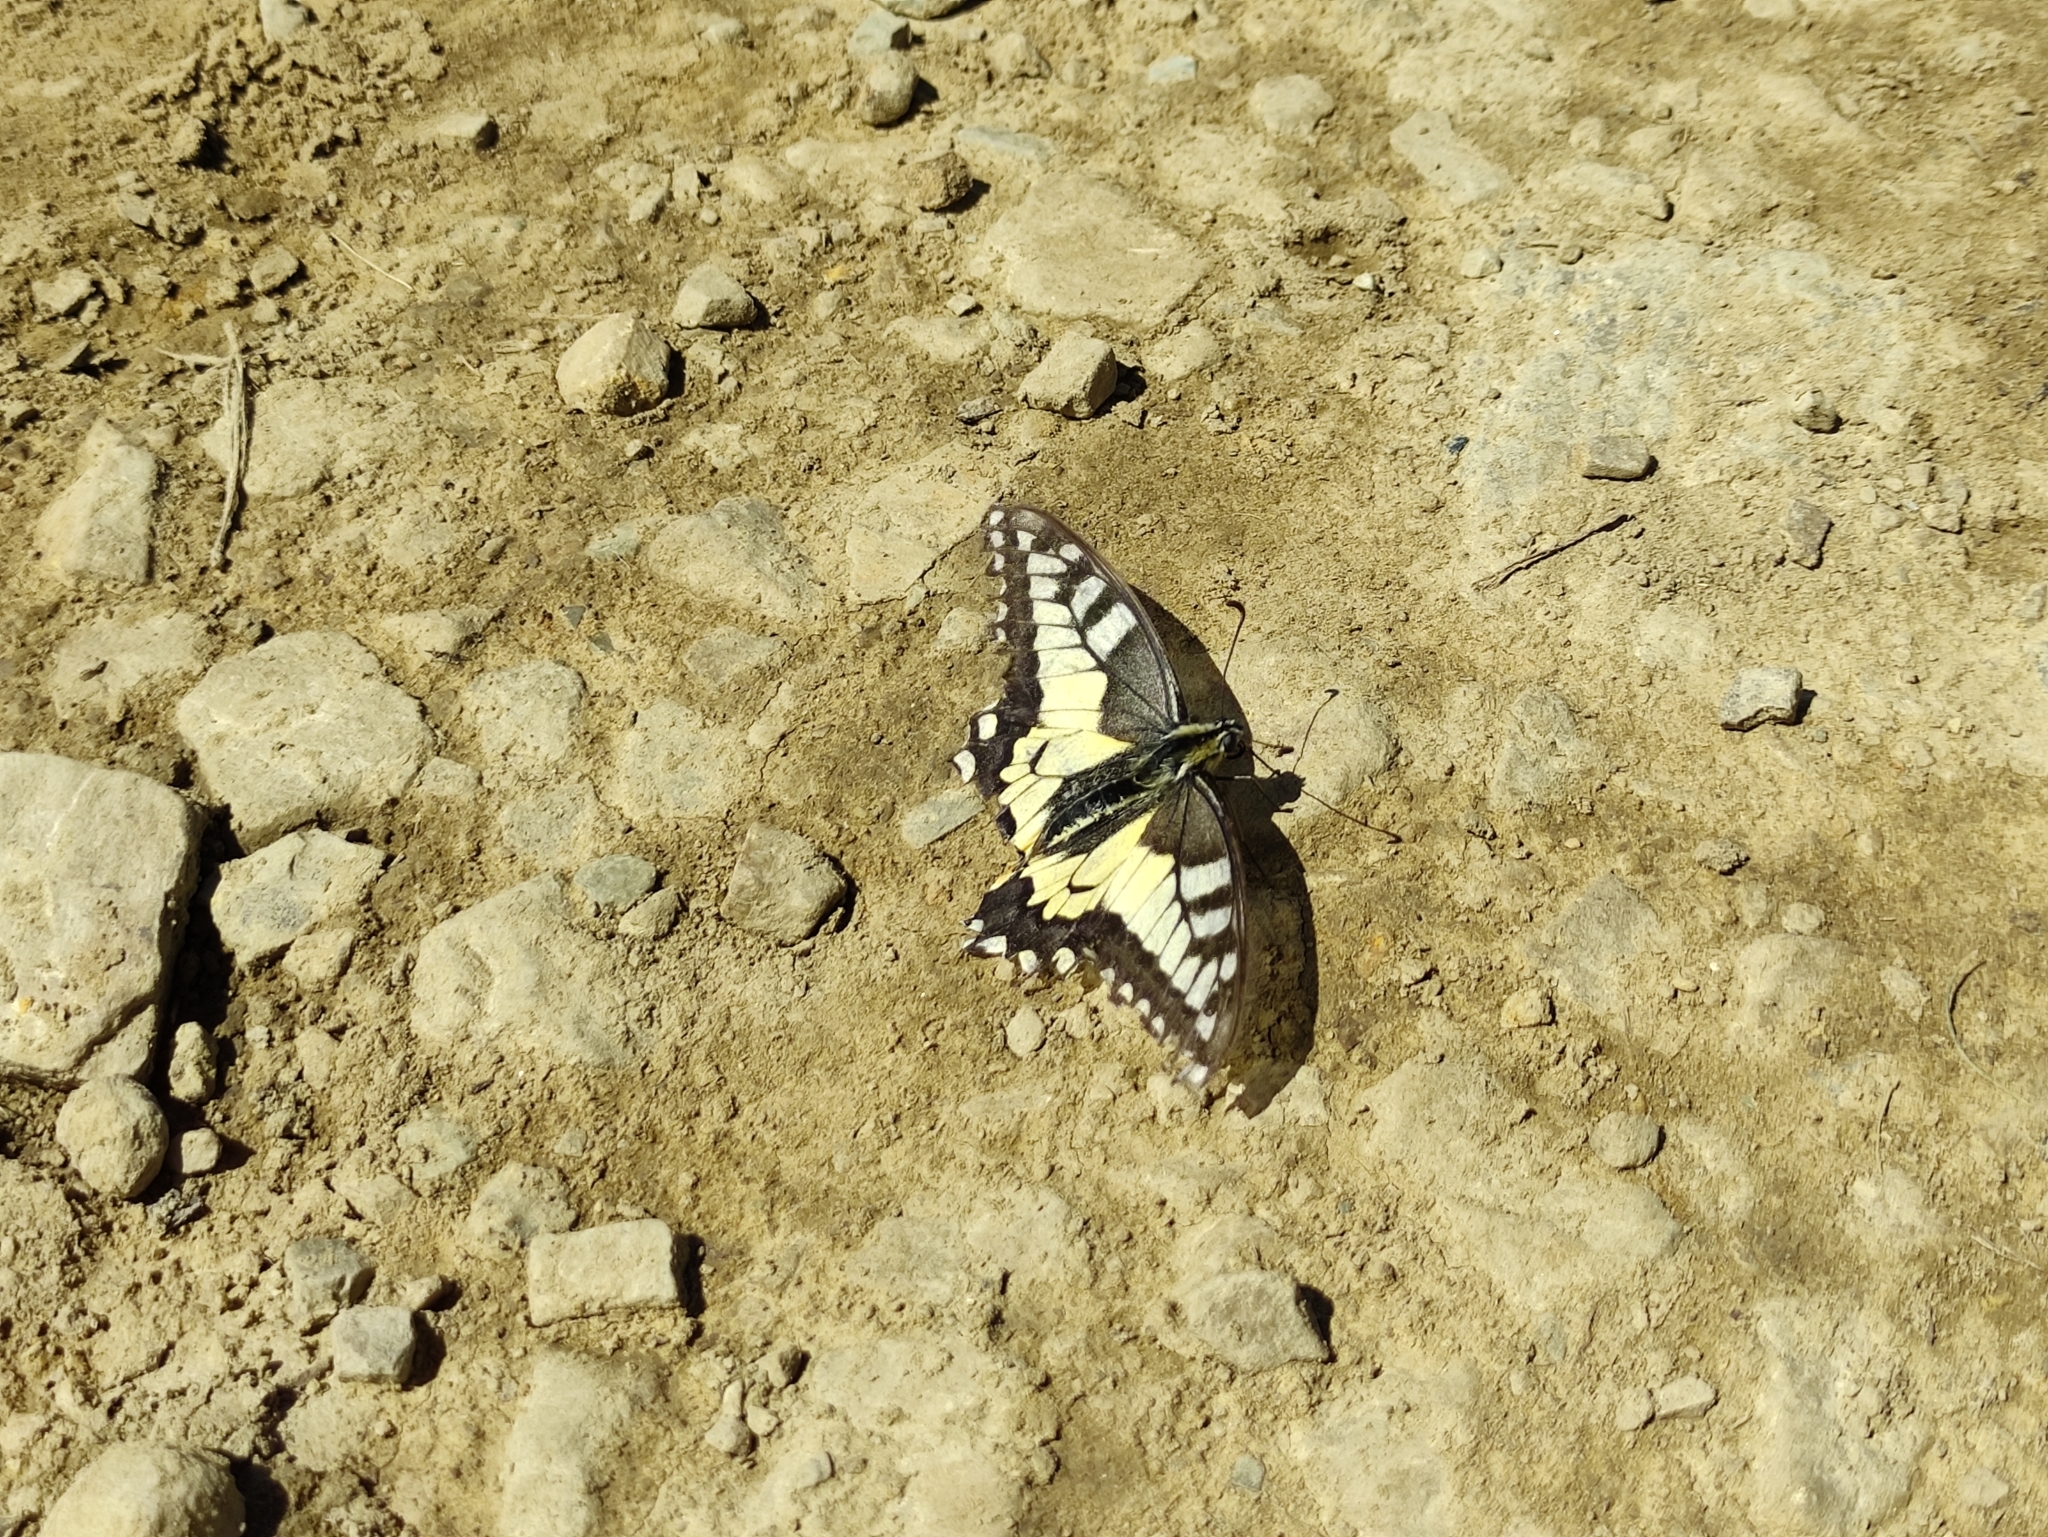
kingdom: Animalia
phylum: Arthropoda
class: Insecta
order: Lepidoptera
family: Papilionidae
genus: Papilio
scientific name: Papilio machaon
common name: Swallowtail
